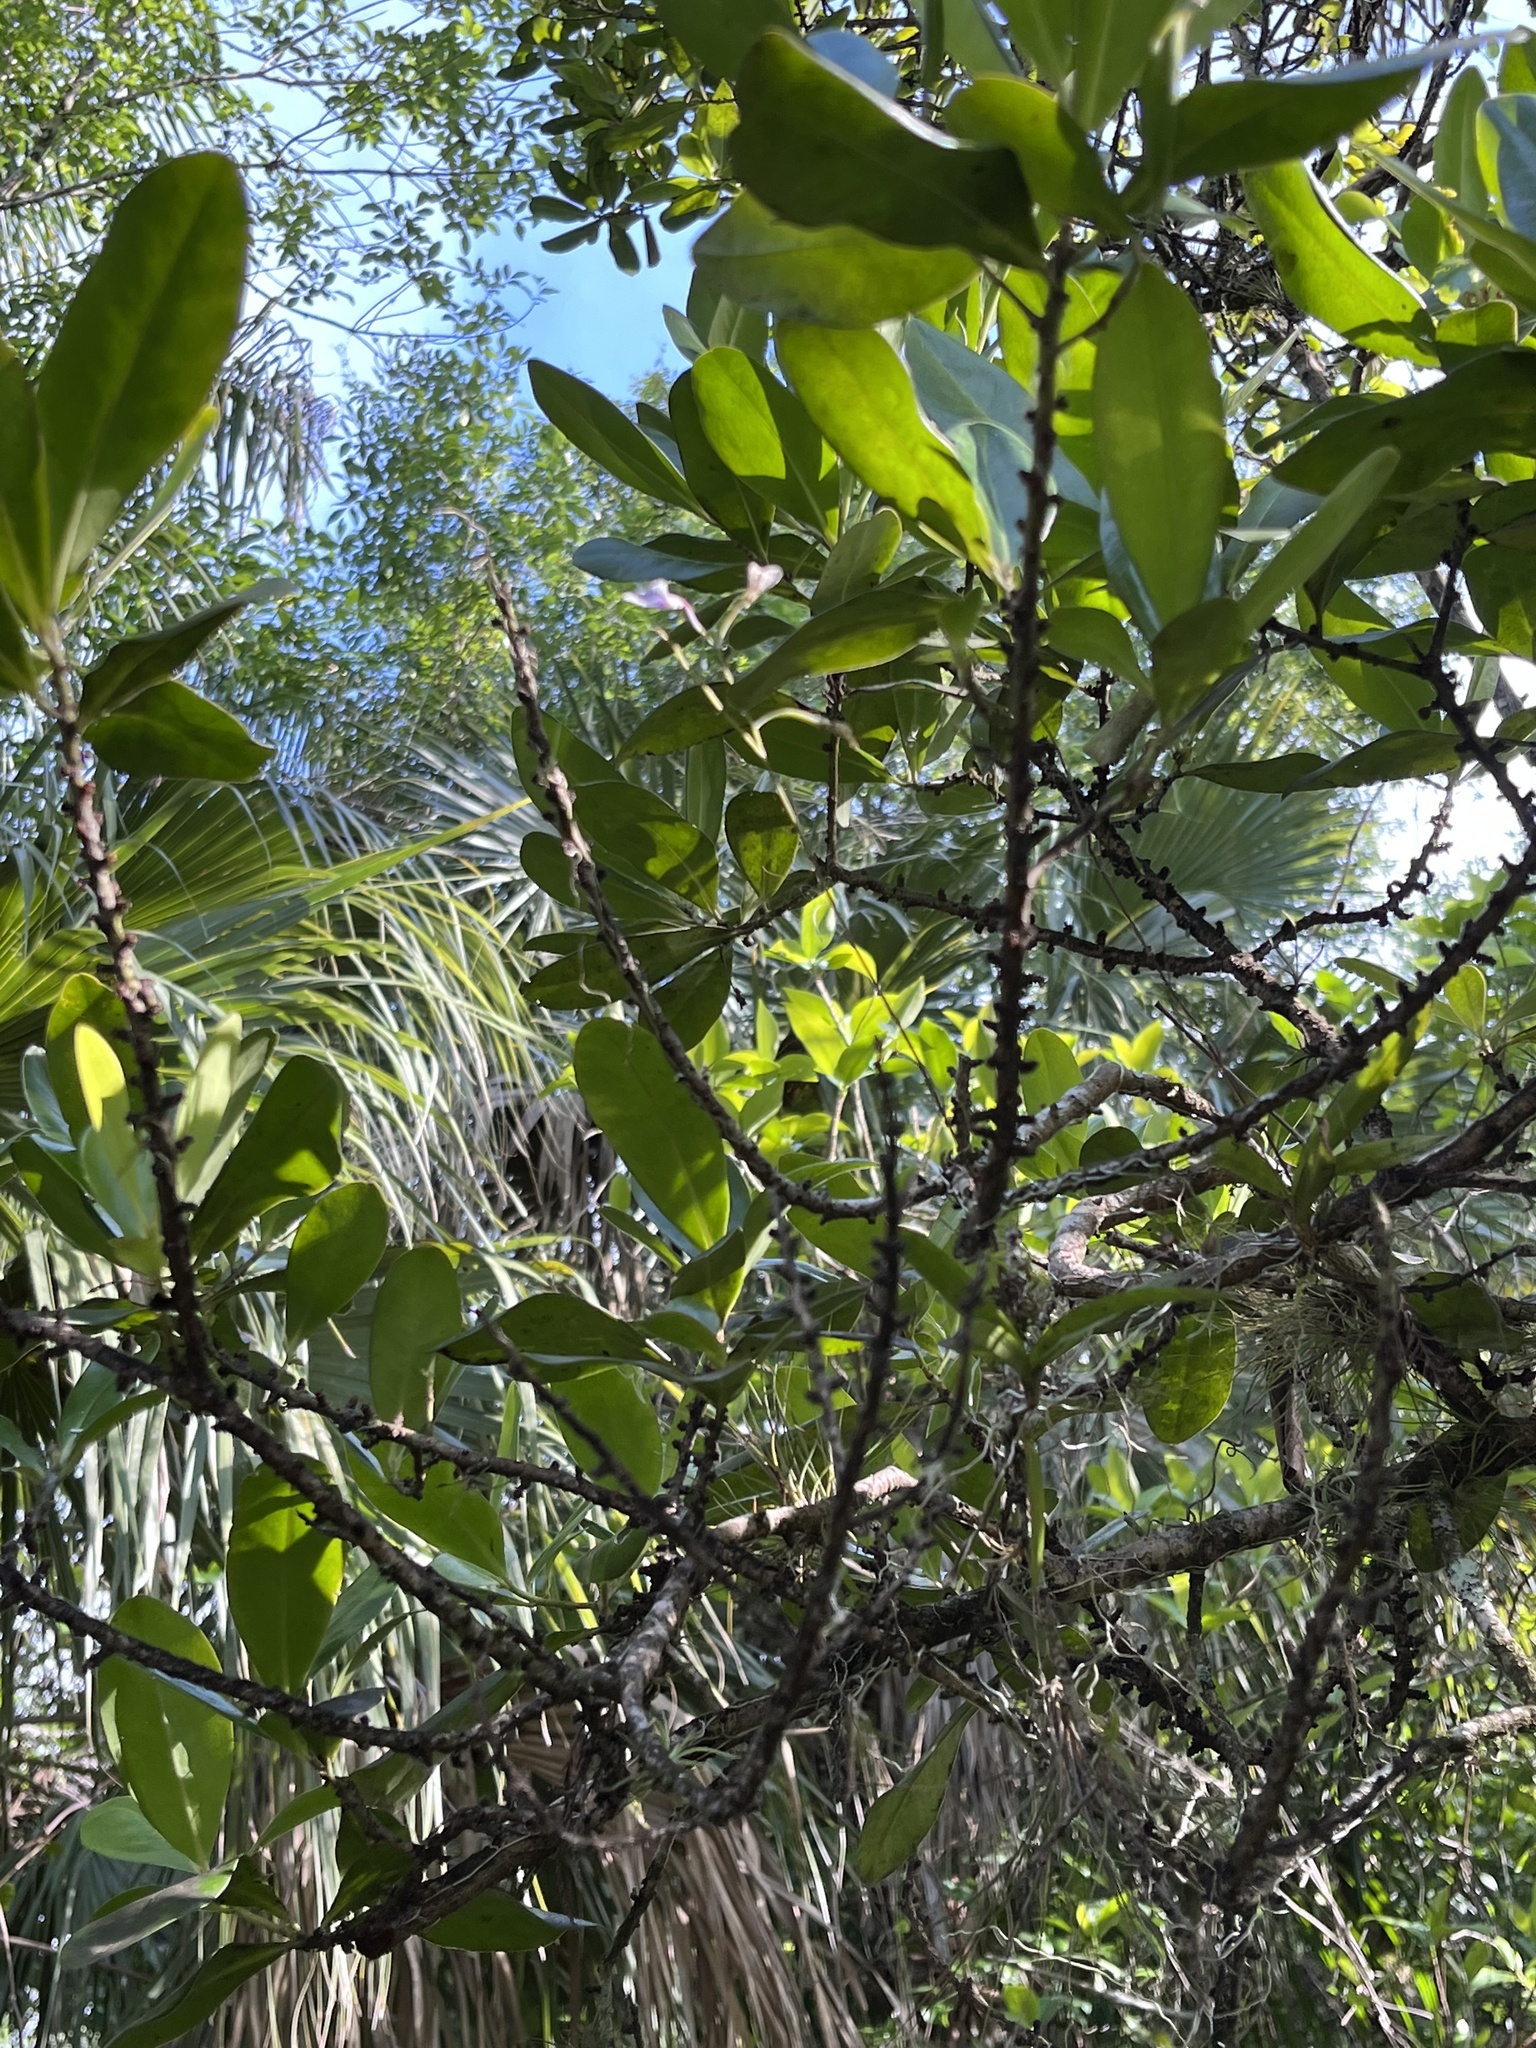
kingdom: Plantae
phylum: Tracheophyta
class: Liliopsida
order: Asparagales
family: Orchidaceae
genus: Ionopsis
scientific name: Ionopsis utricularioides
